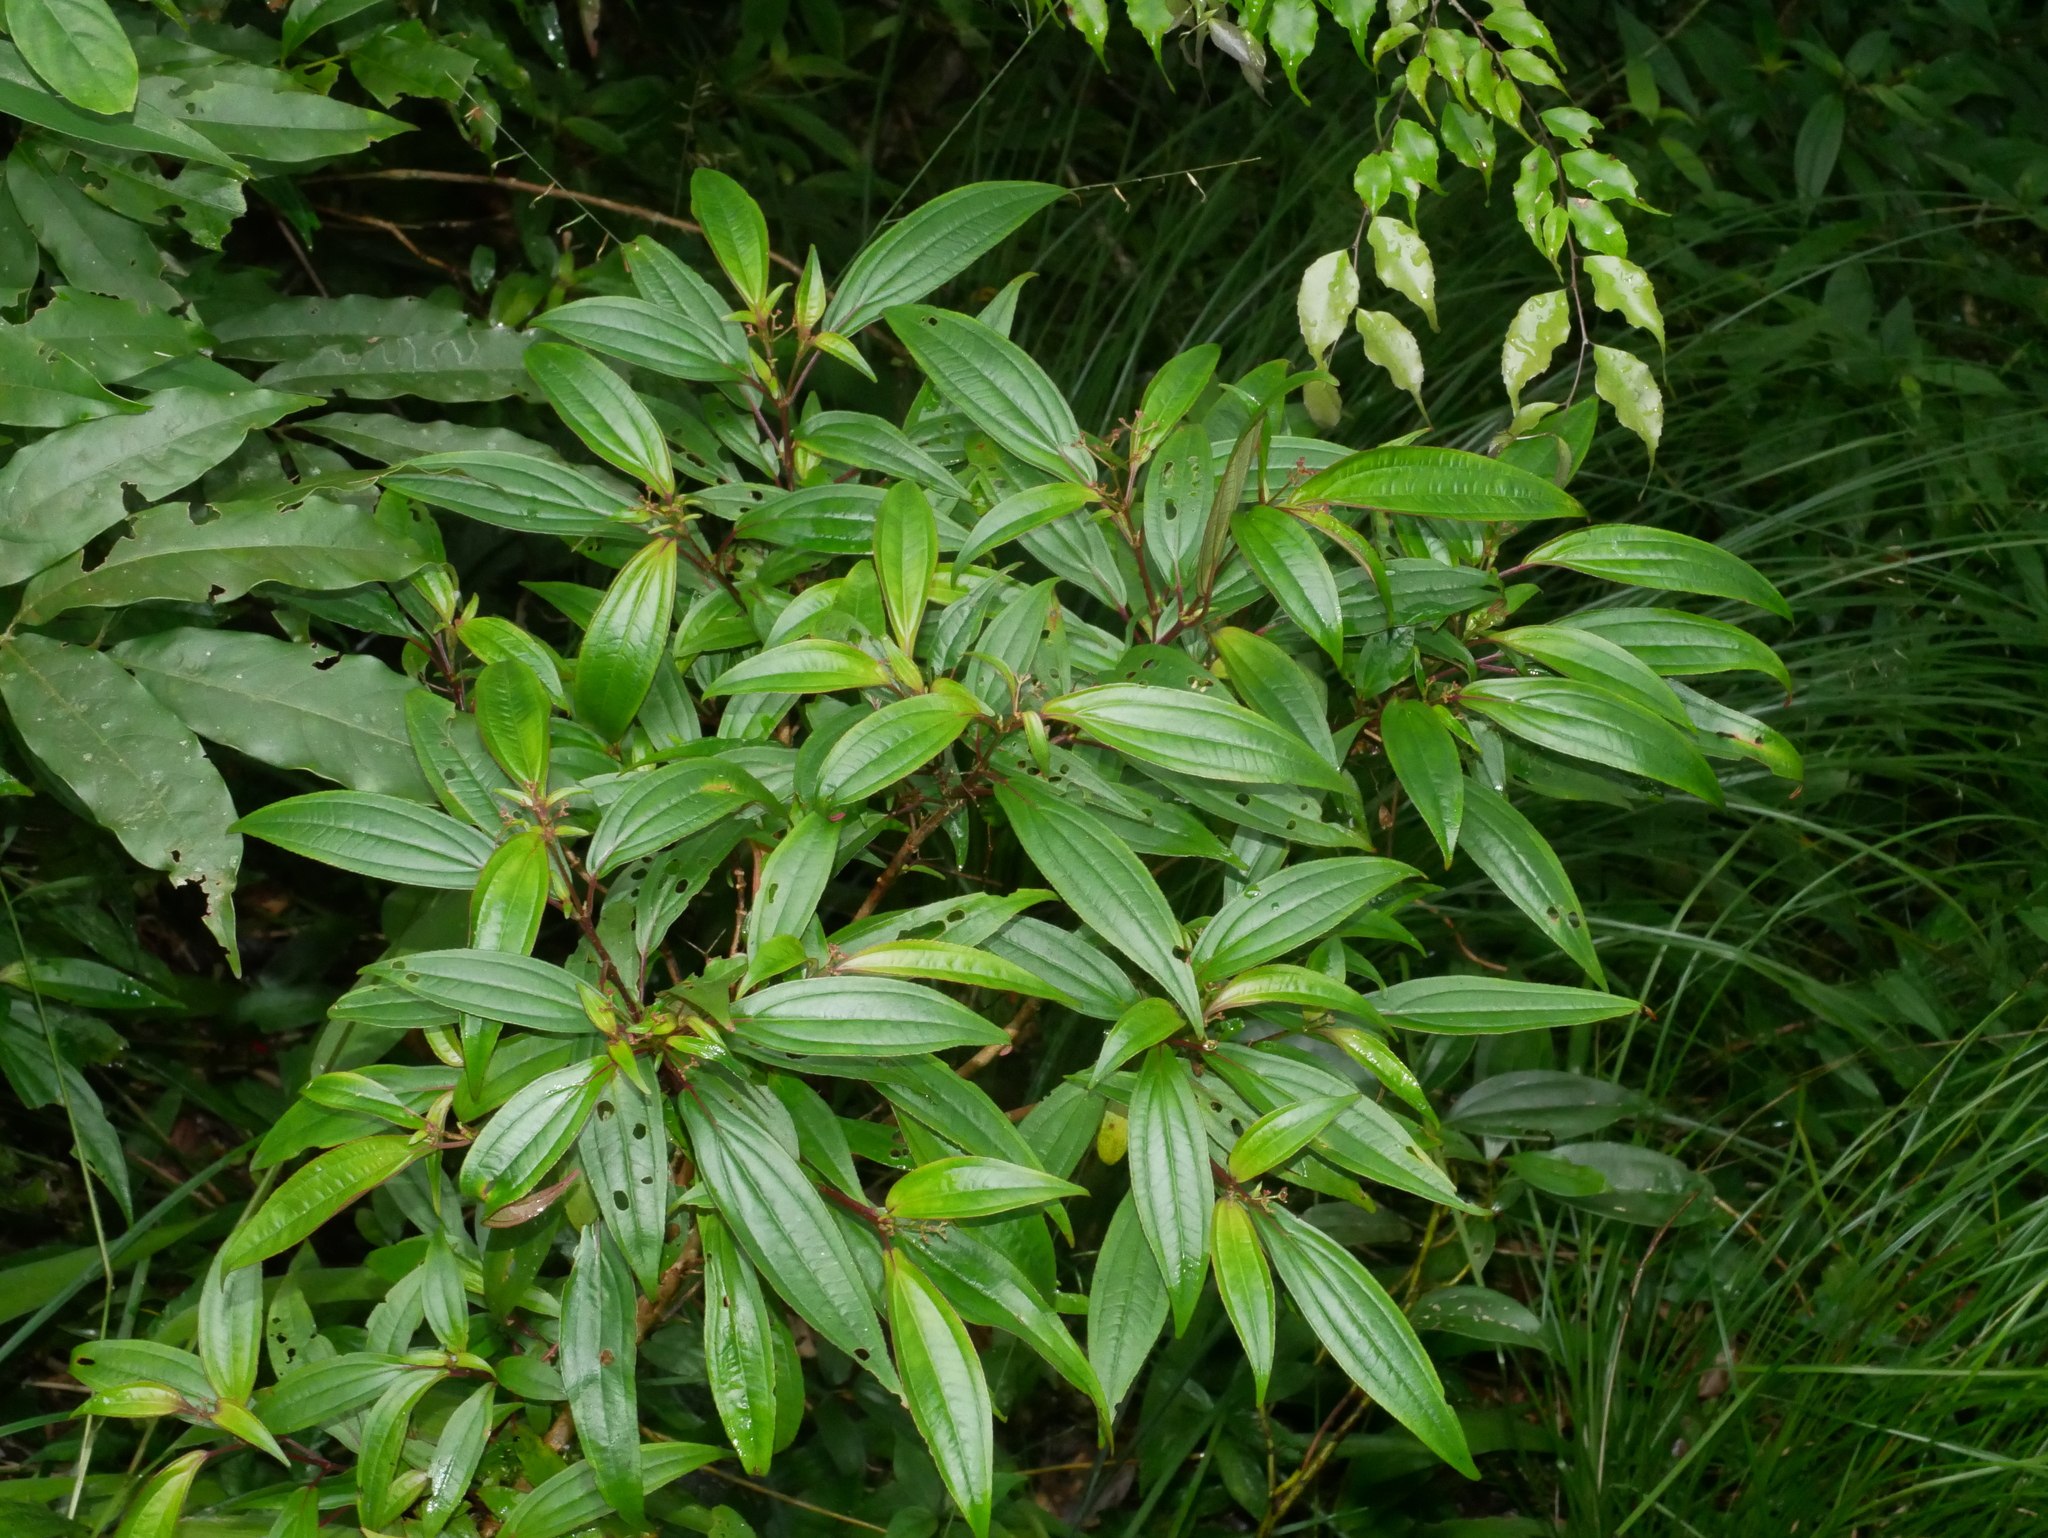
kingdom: Plantae
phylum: Tracheophyta
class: Magnoliopsida
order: Myrtales
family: Melastomataceae
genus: Bredia
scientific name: Bredia oldhamii
